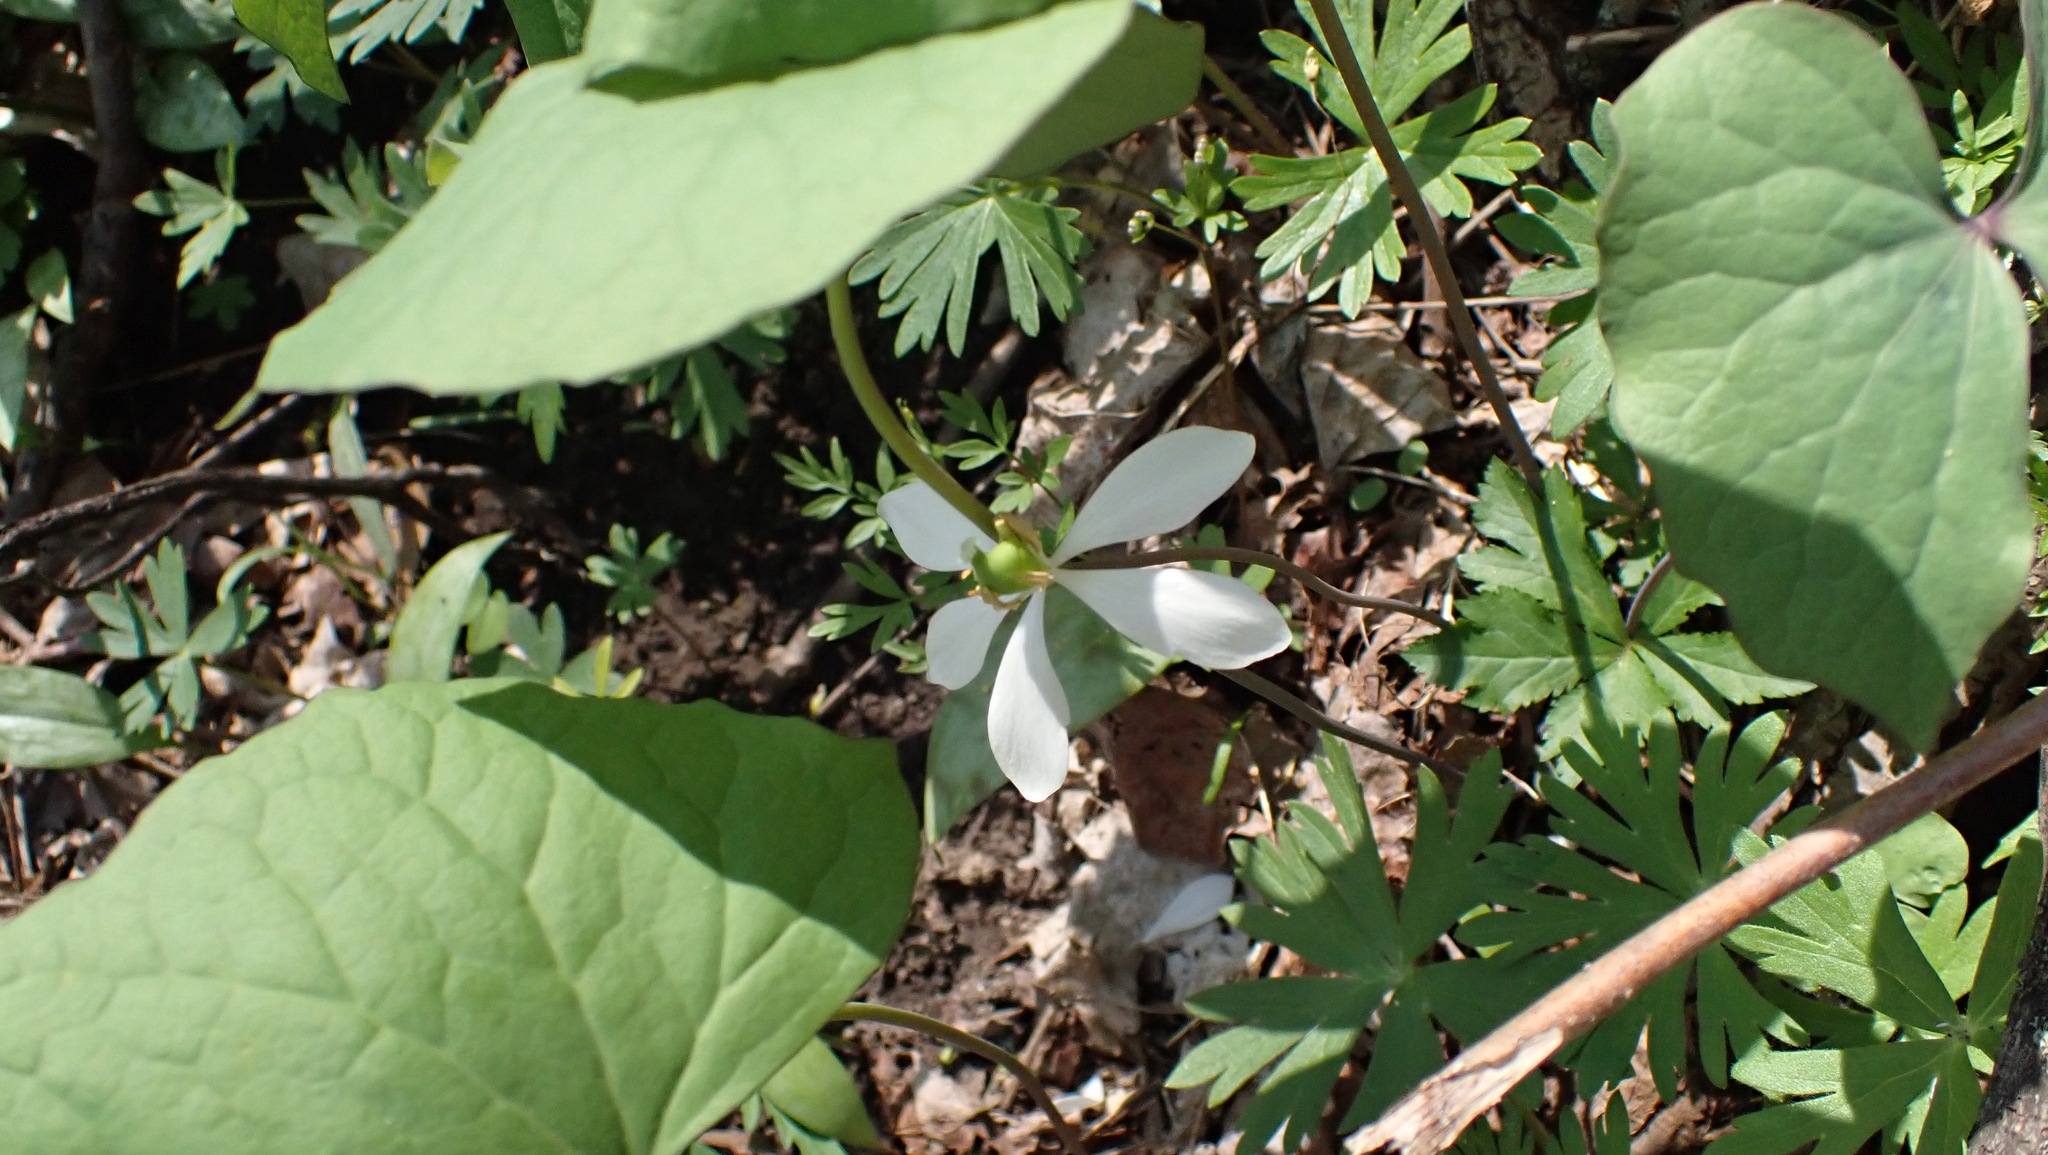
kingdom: Plantae
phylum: Tracheophyta
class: Magnoliopsida
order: Ranunculales
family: Berberidaceae
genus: Jeffersonia
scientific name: Jeffersonia diphylla
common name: Rheumatism-root
